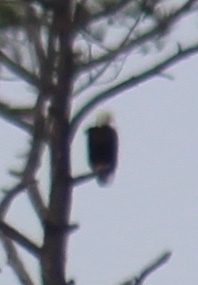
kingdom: Animalia
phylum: Chordata
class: Aves
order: Accipitriformes
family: Accipitridae
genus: Haliaeetus
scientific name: Haliaeetus leucocephalus
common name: Bald eagle
